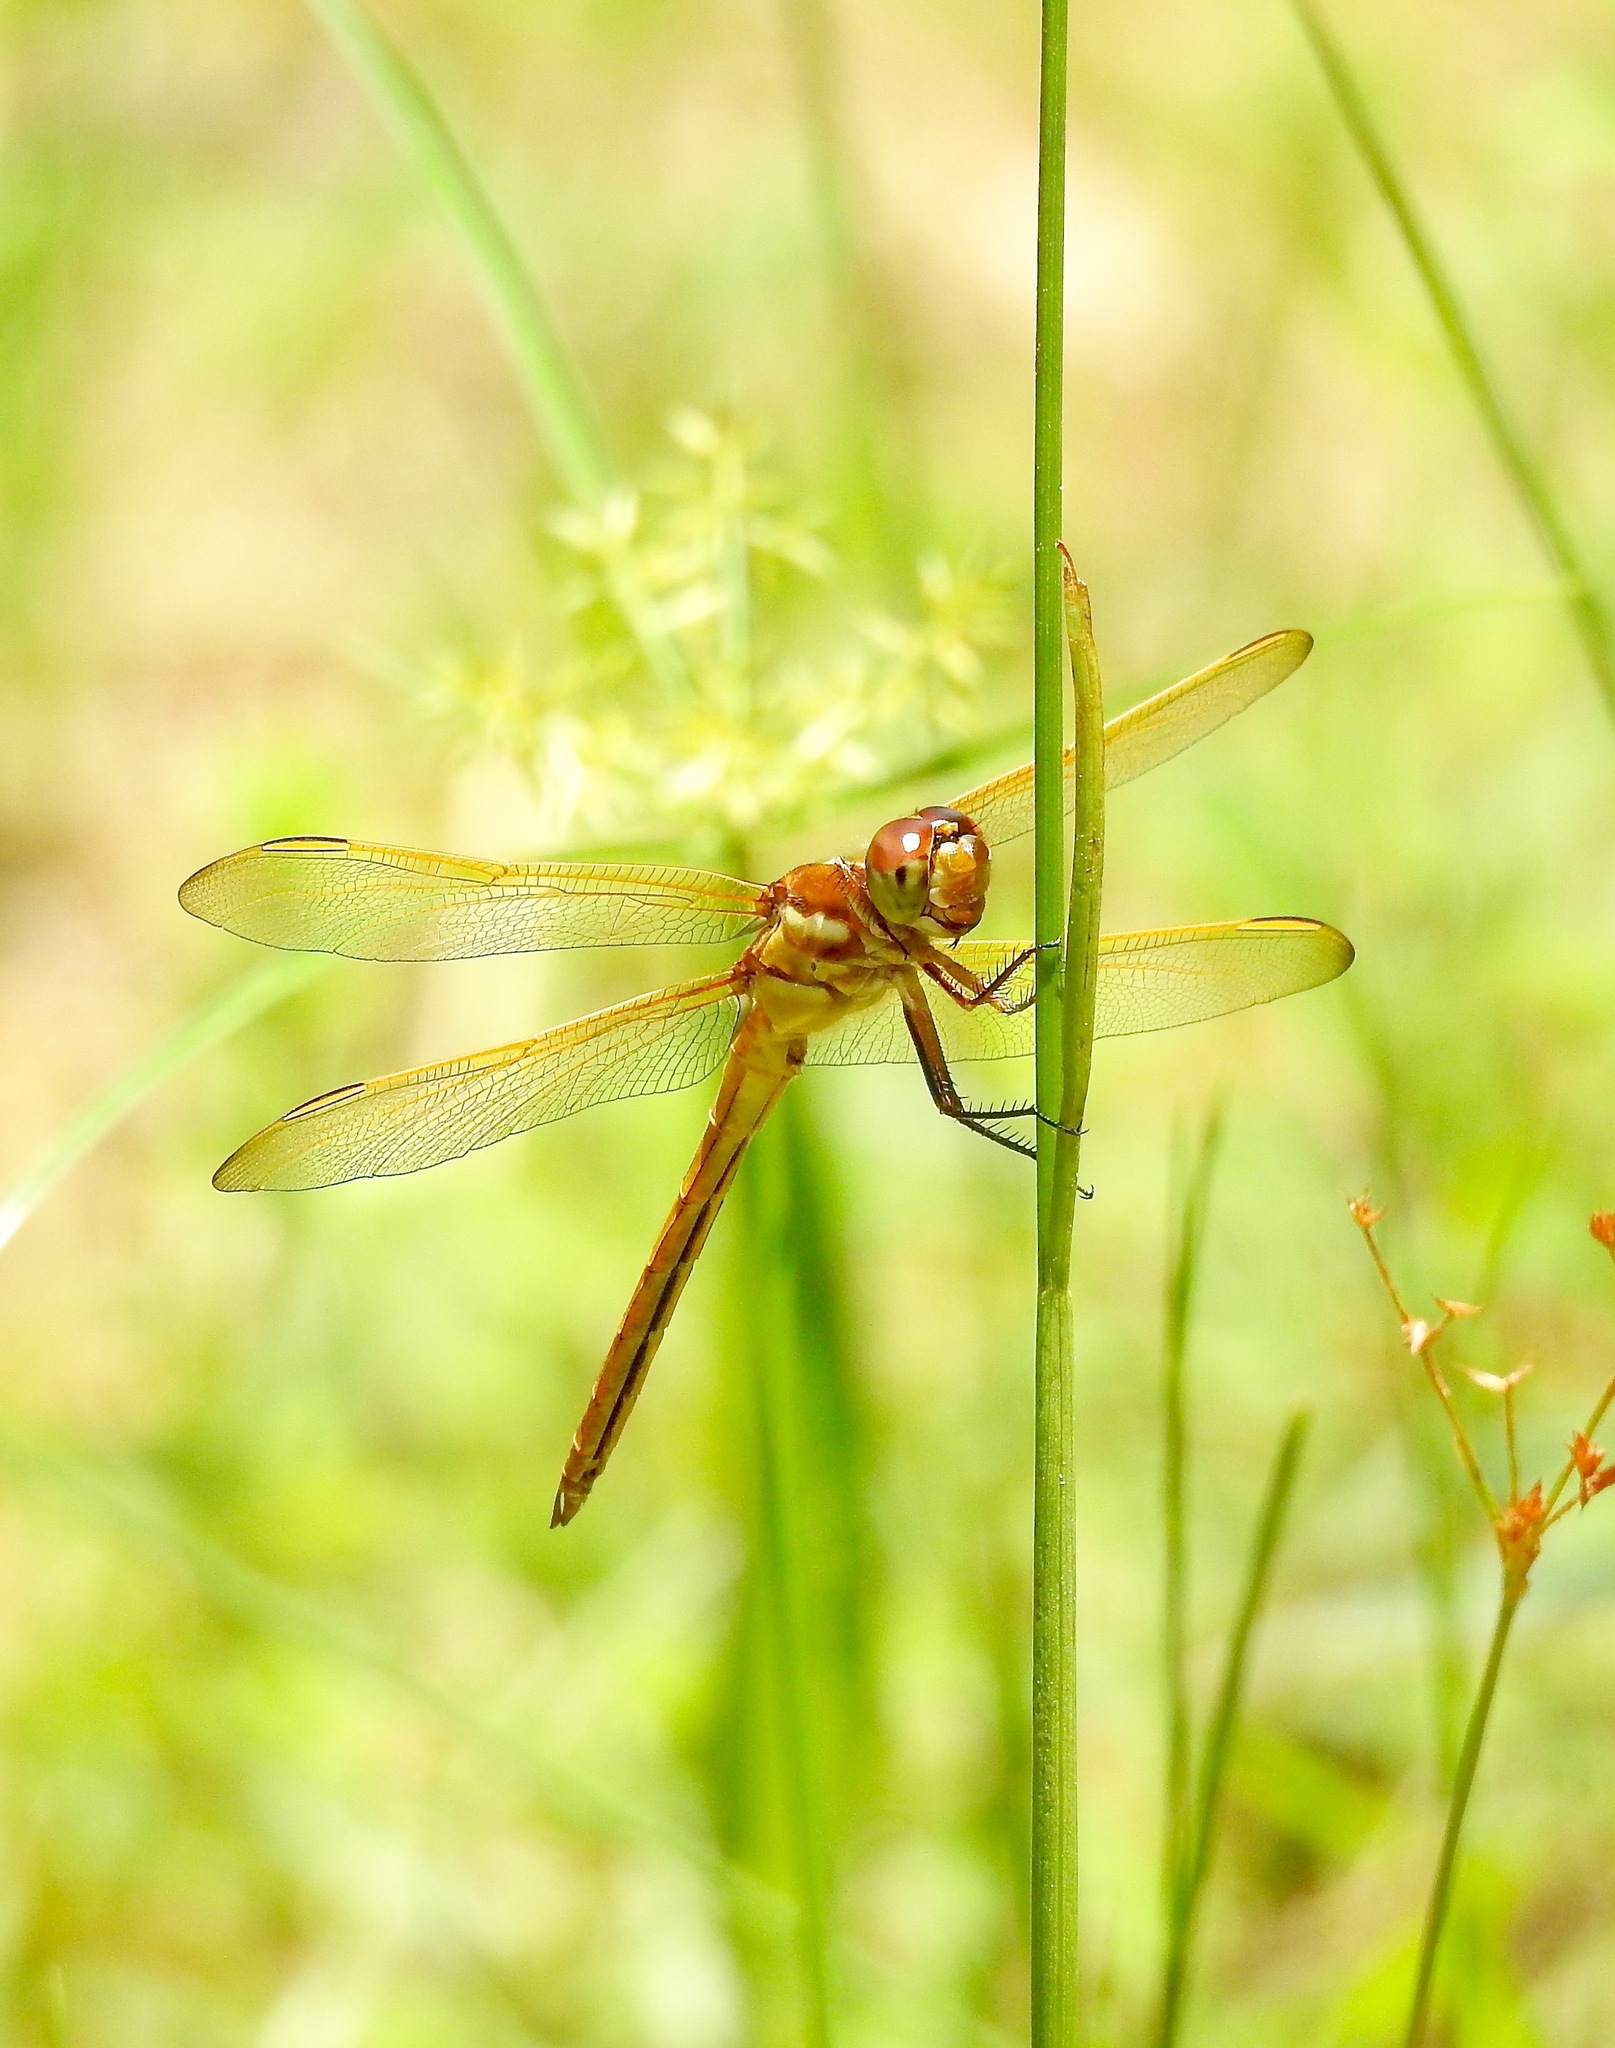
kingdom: Animalia
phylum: Arthropoda
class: Insecta
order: Odonata
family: Libellulidae
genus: Libellula
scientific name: Libellula auripennis
